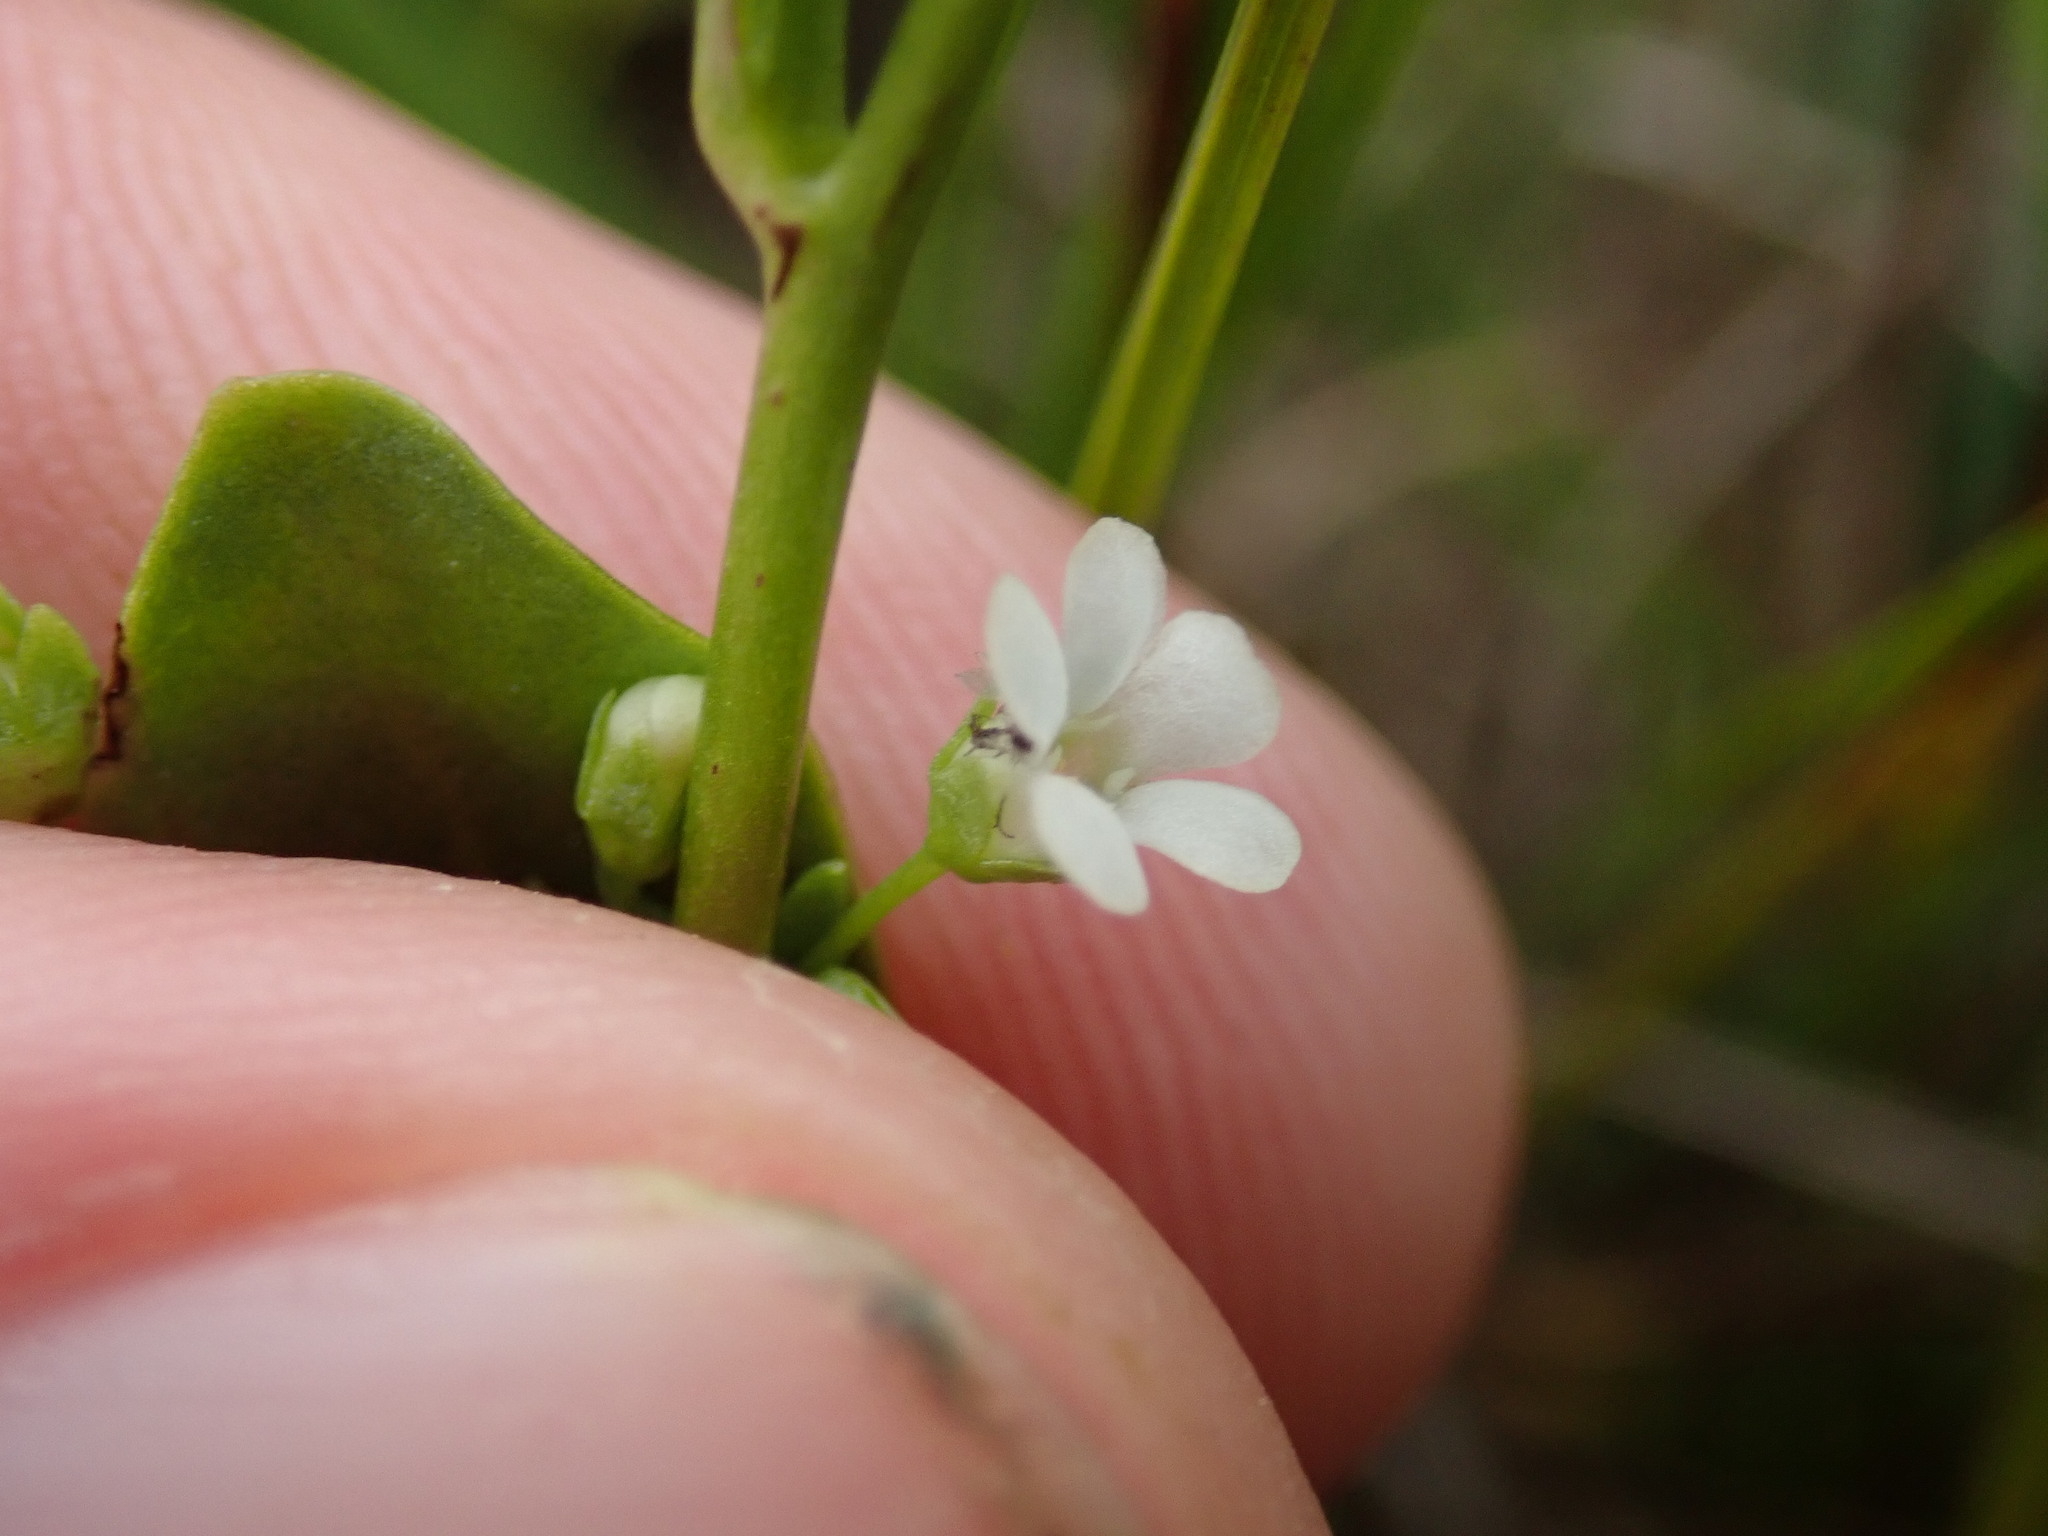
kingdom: Plantae
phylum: Tracheophyta
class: Magnoliopsida
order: Ericales
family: Primulaceae
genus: Samolus
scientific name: Samolus valerandi
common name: Brookweed
